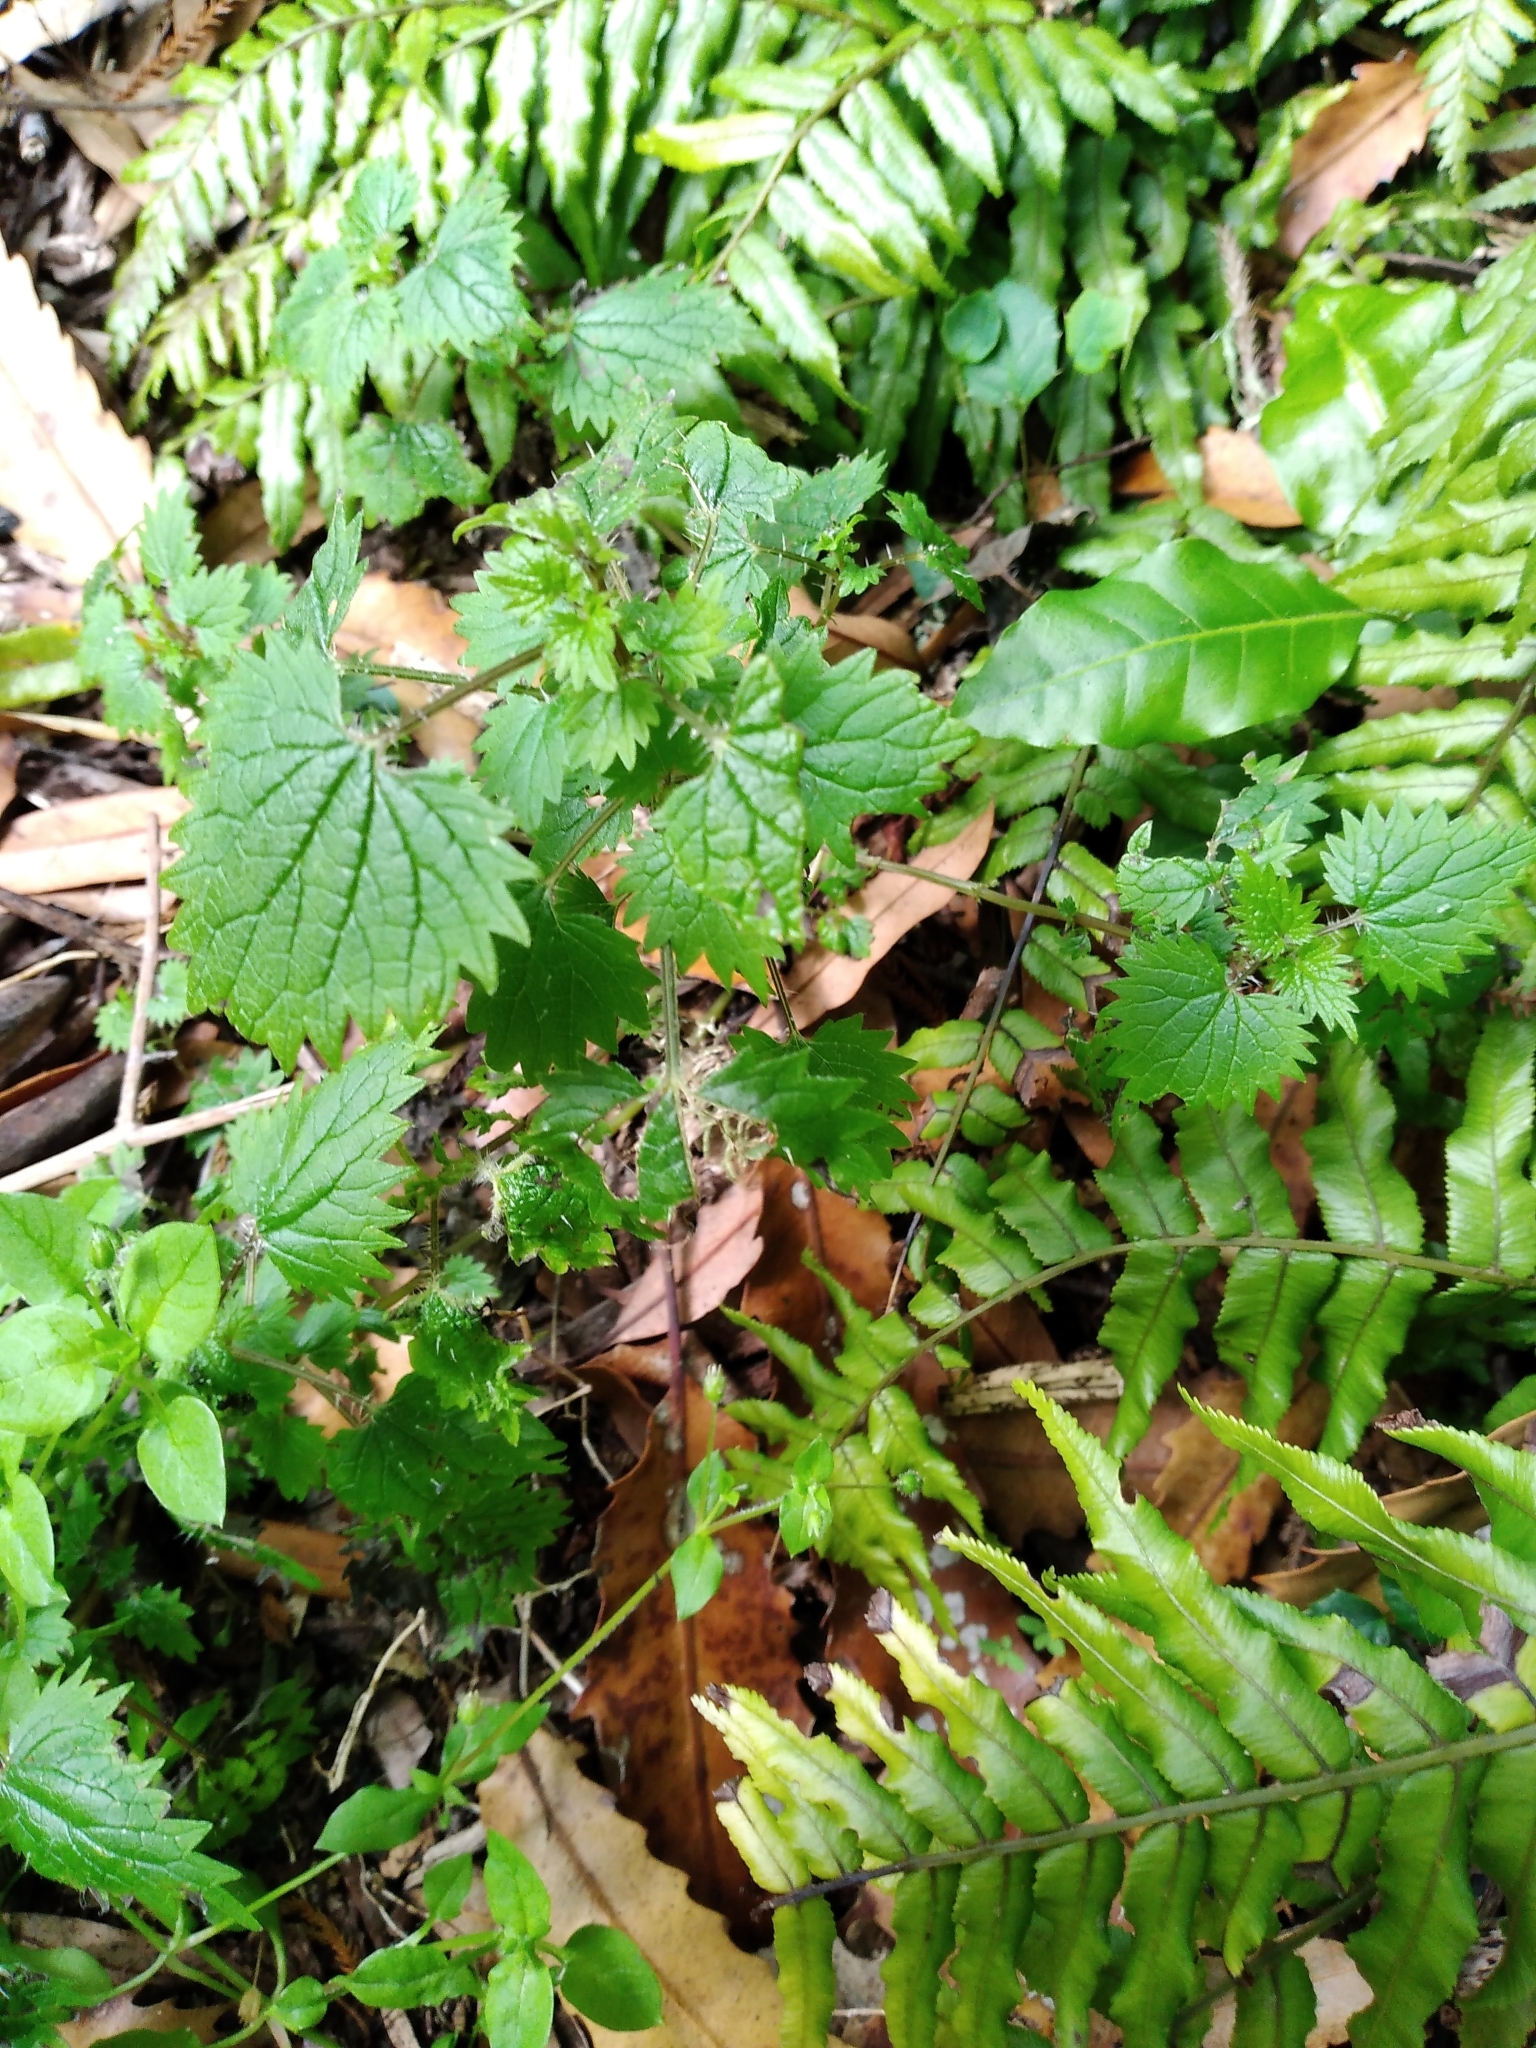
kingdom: Plantae
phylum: Tracheophyta
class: Magnoliopsida
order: Rosales
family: Urticaceae
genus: Urtica
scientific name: Urtica sykesii
